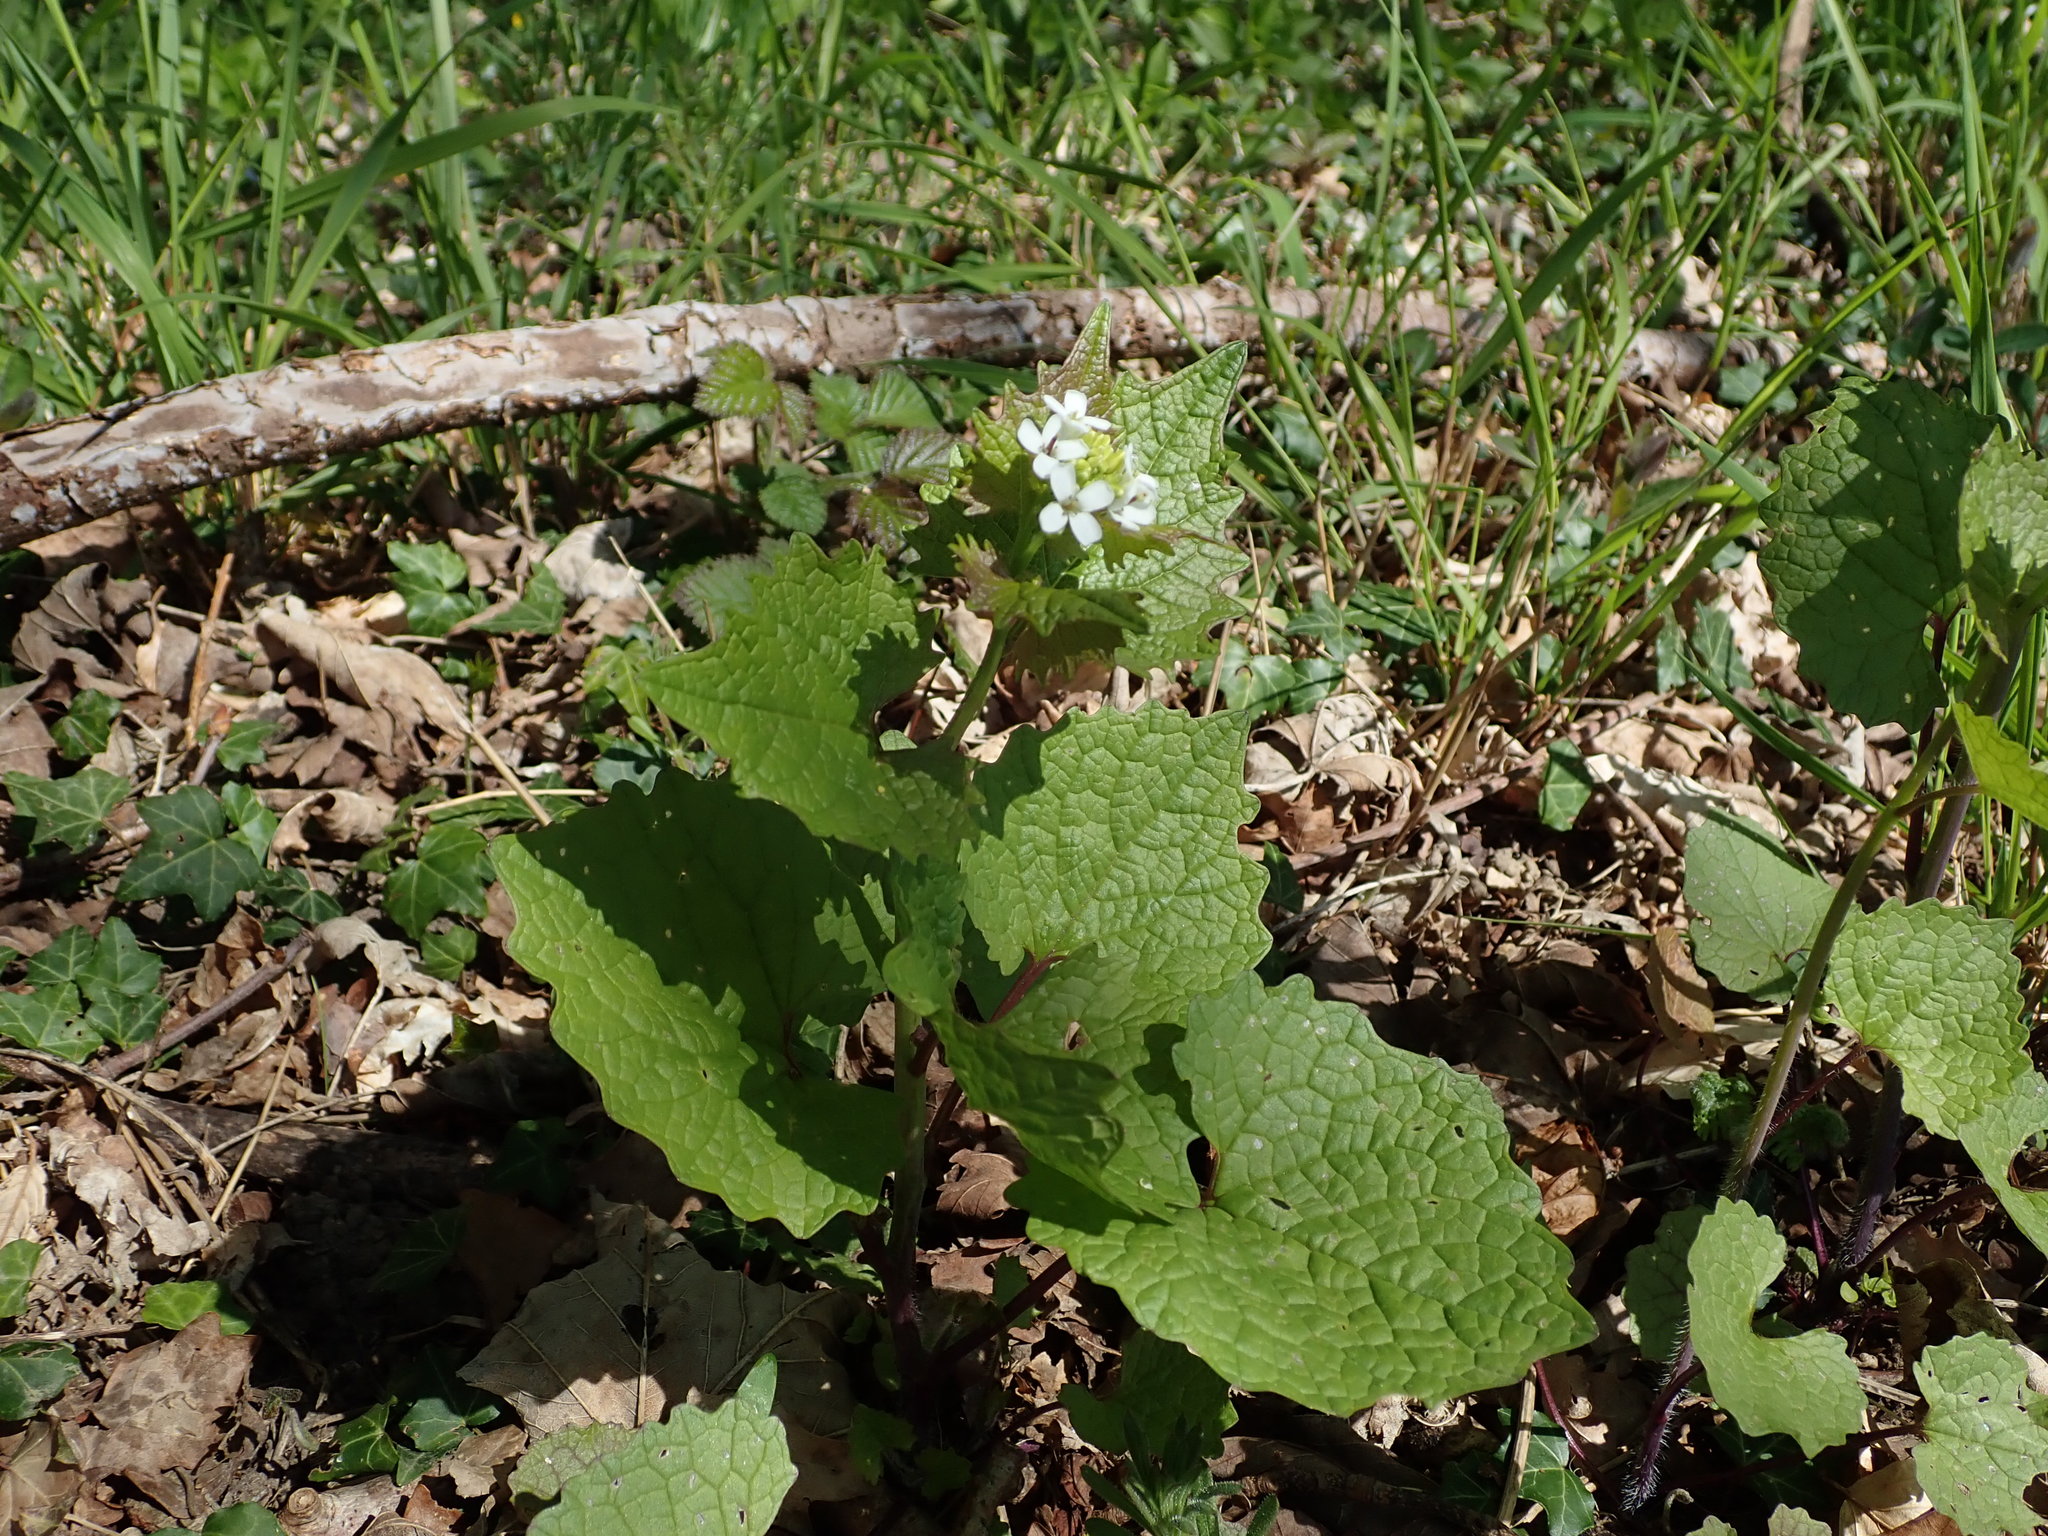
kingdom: Plantae
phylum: Tracheophyta
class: Magnoliopsida
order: Brassicales
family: Brassicaceae
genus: Alliaria
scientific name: Alliaria petiolata
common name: Garlic mustard
